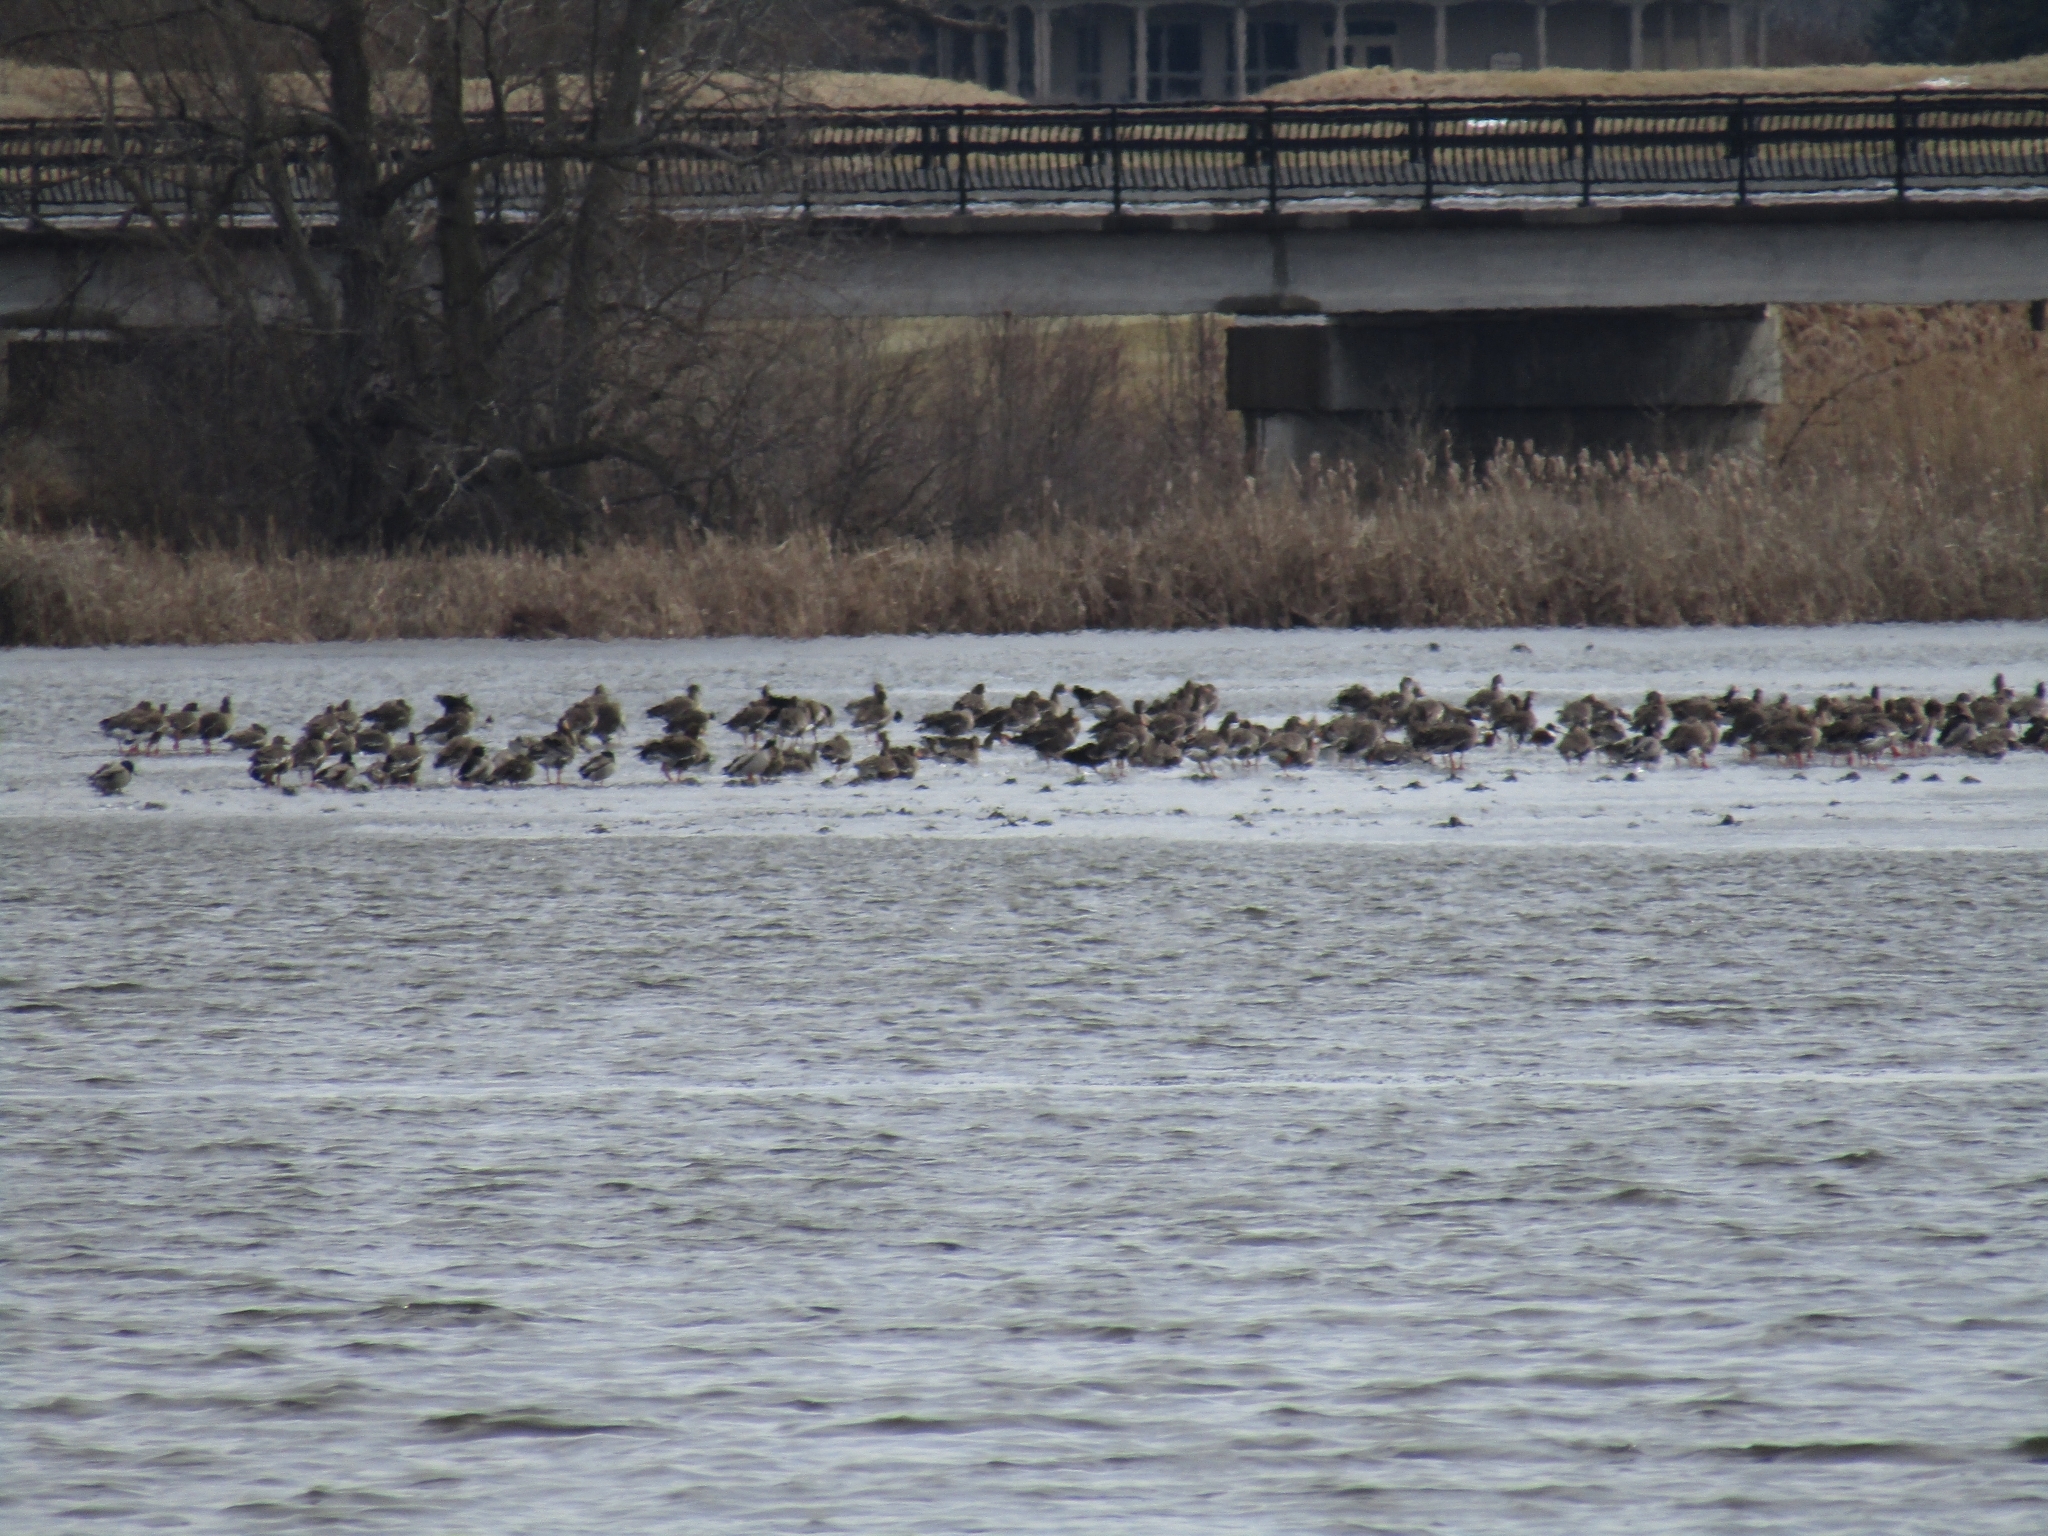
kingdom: Animalia
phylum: Chordata
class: Aves
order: Anseriformes
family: Anatidae
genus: Anser
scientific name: Anser albifrons
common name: Greater white-fronted goose
